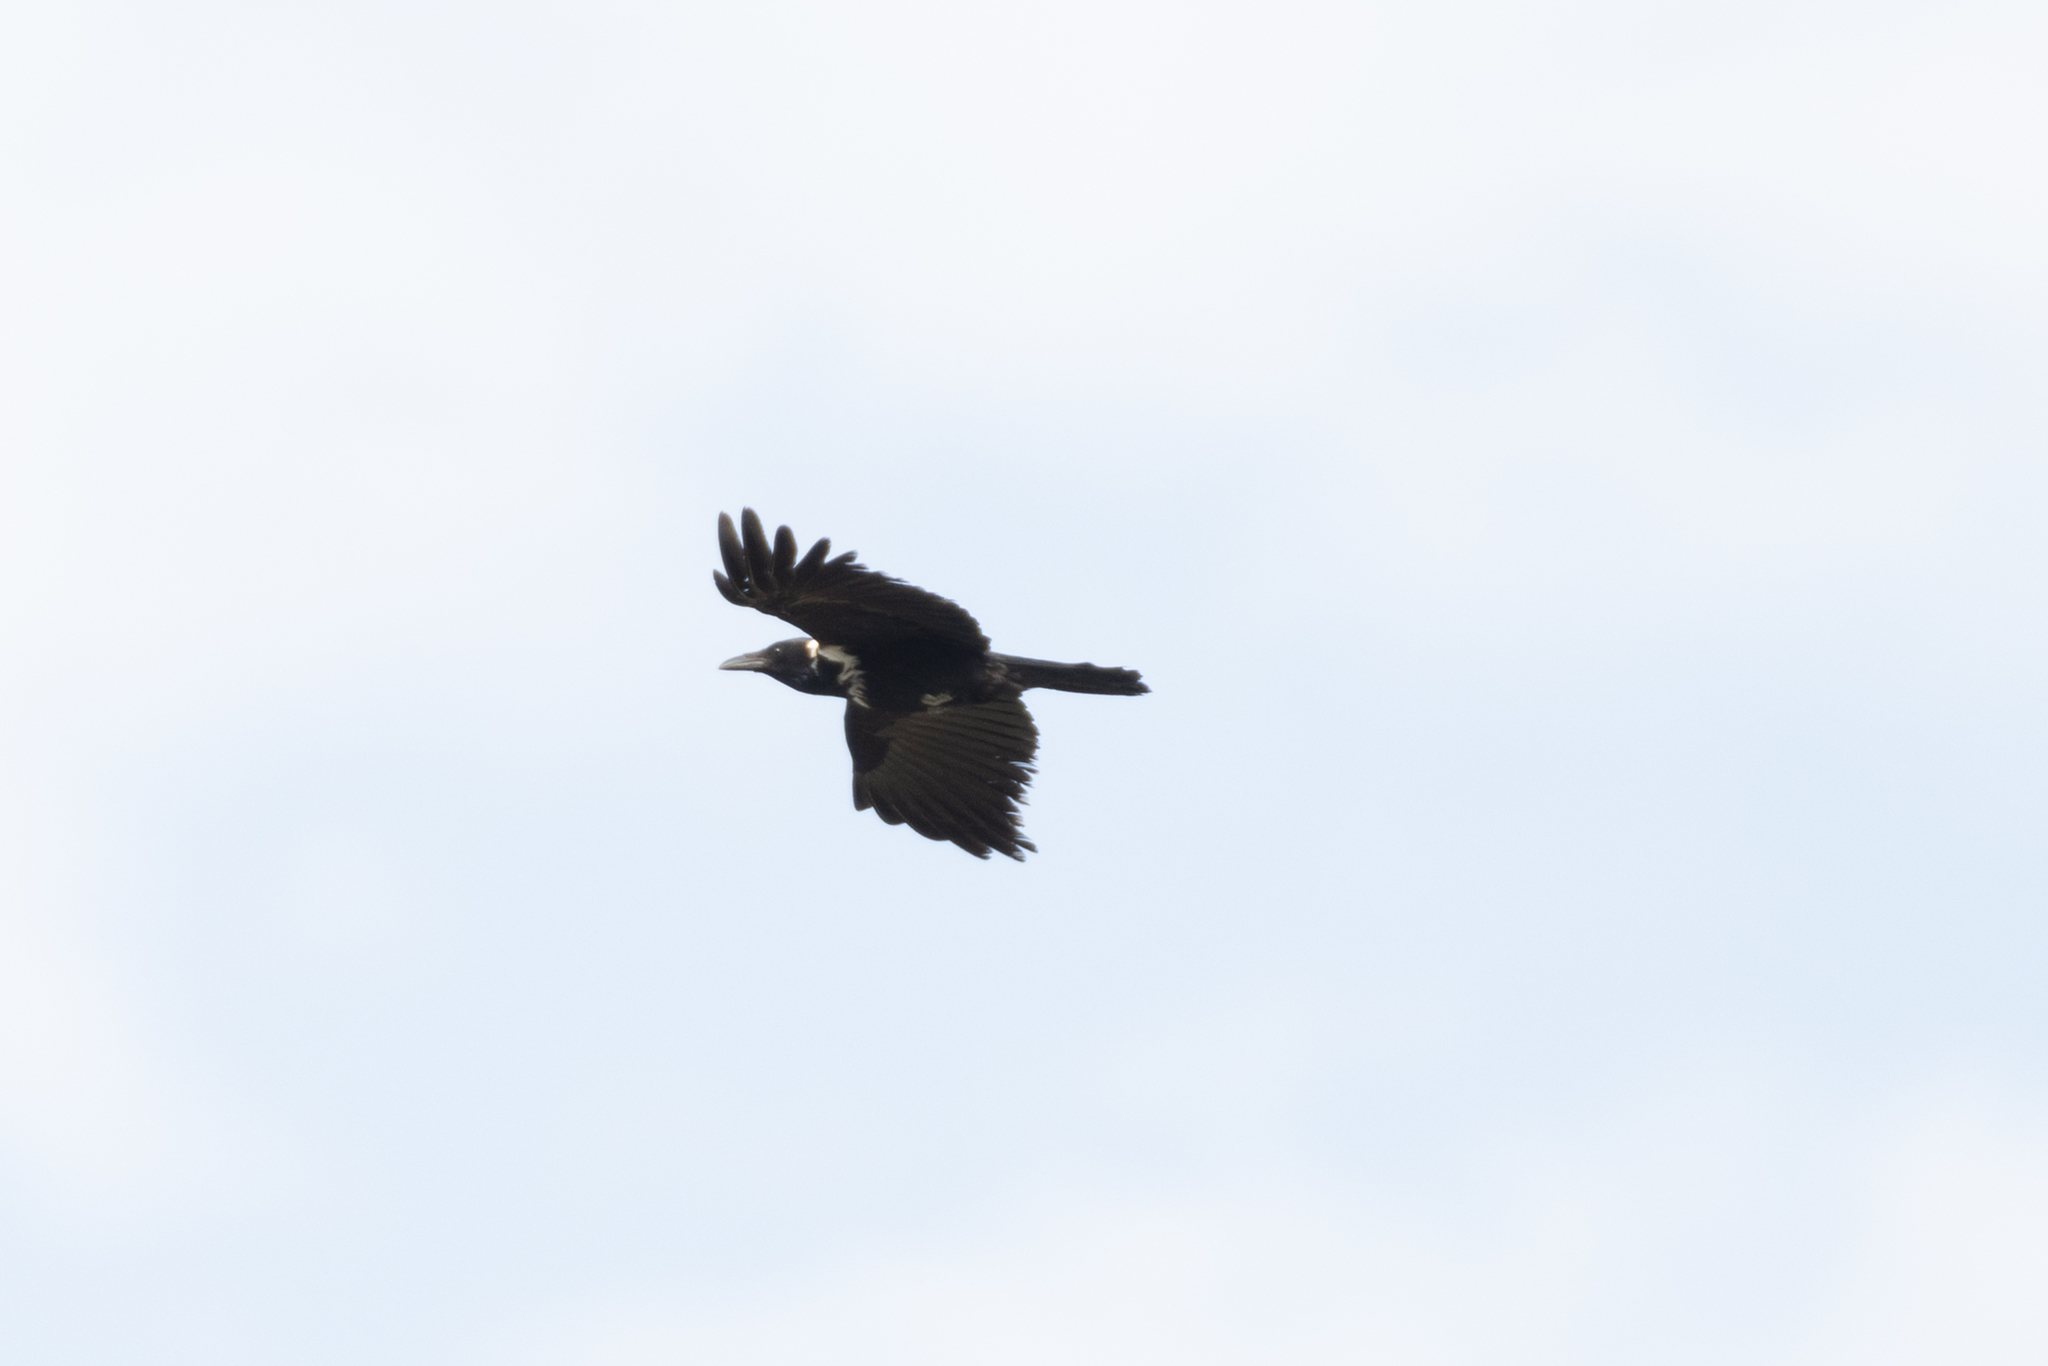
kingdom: Animalia
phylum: Chordata
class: Aves
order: Passeriformes
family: Corvidae
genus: Corvus
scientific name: Corvus pectoralis
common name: Collared crow
